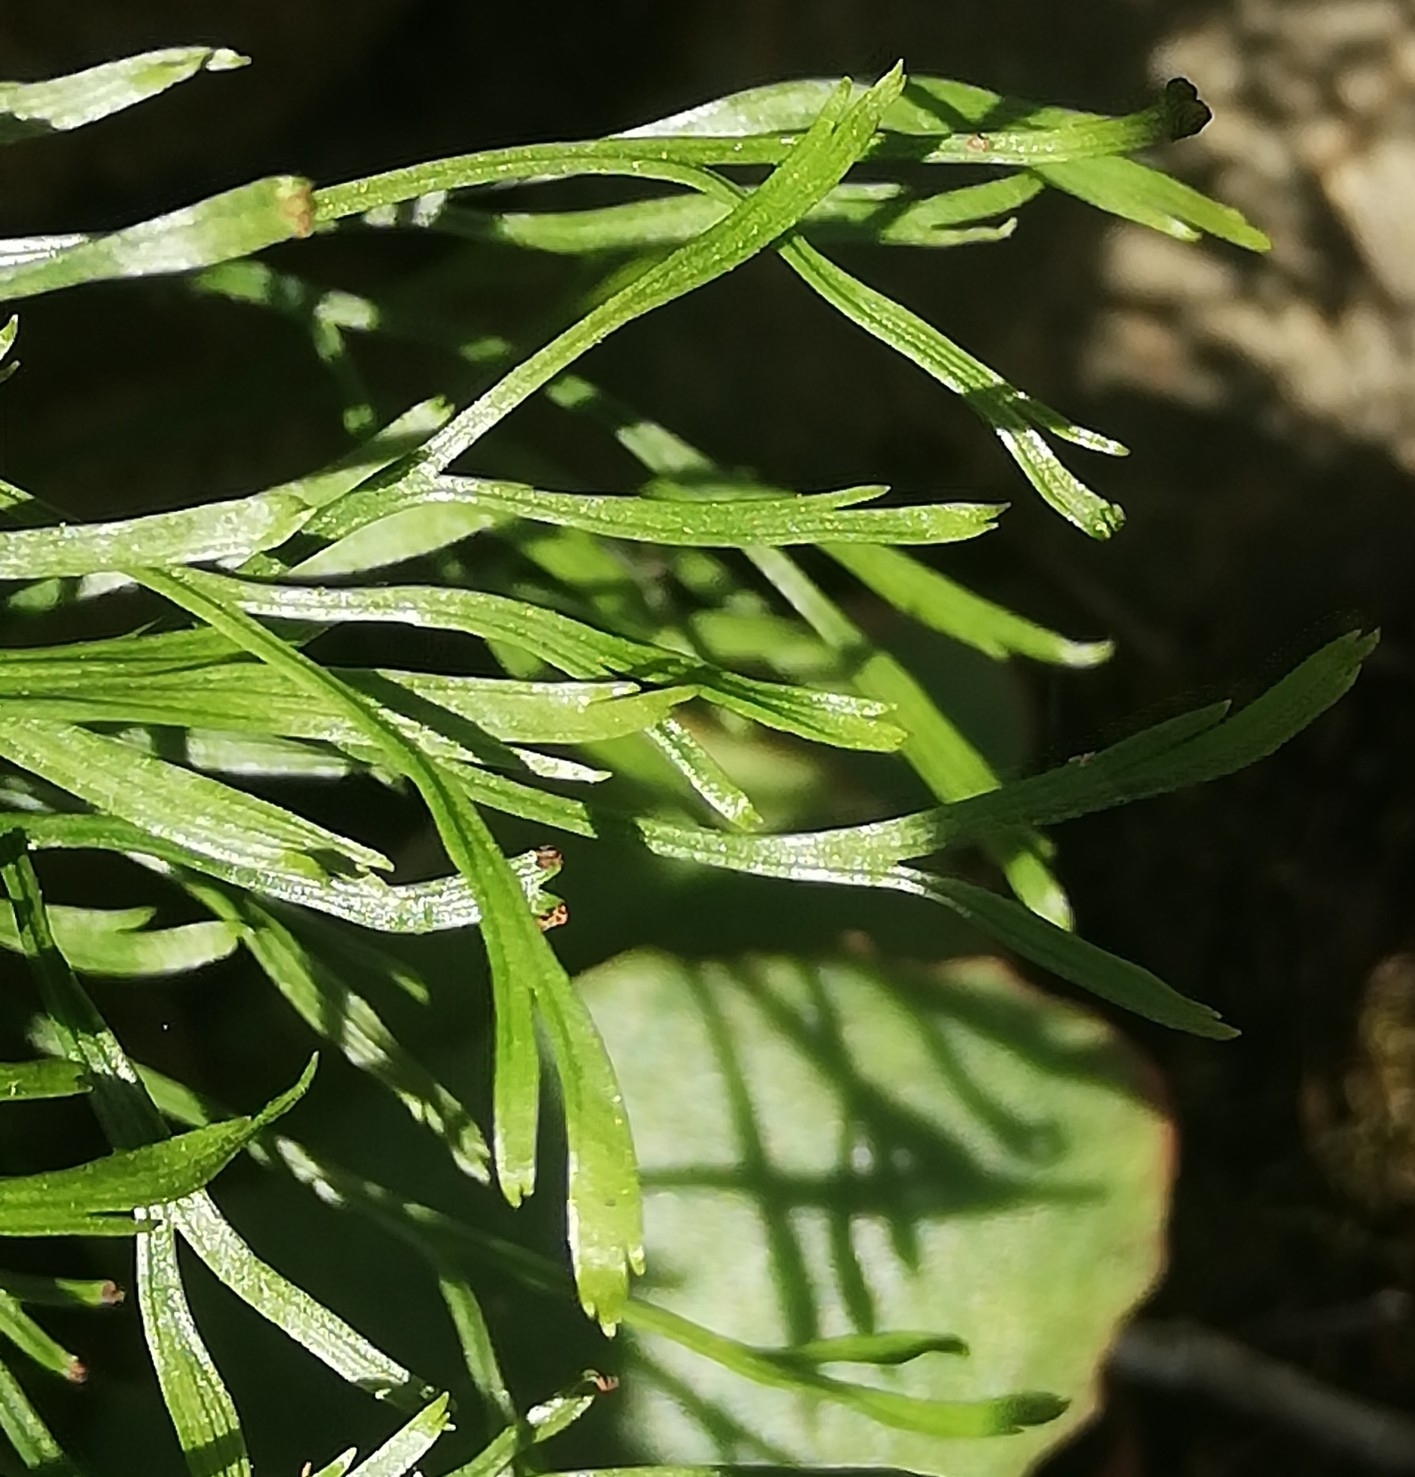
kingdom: Plantae
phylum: Tracheophyta
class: Polypodiopsida
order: Polypodiales
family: Aspleniaceae
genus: Asplenium
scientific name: Asplenium septentrionale
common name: Forked spleenwort
